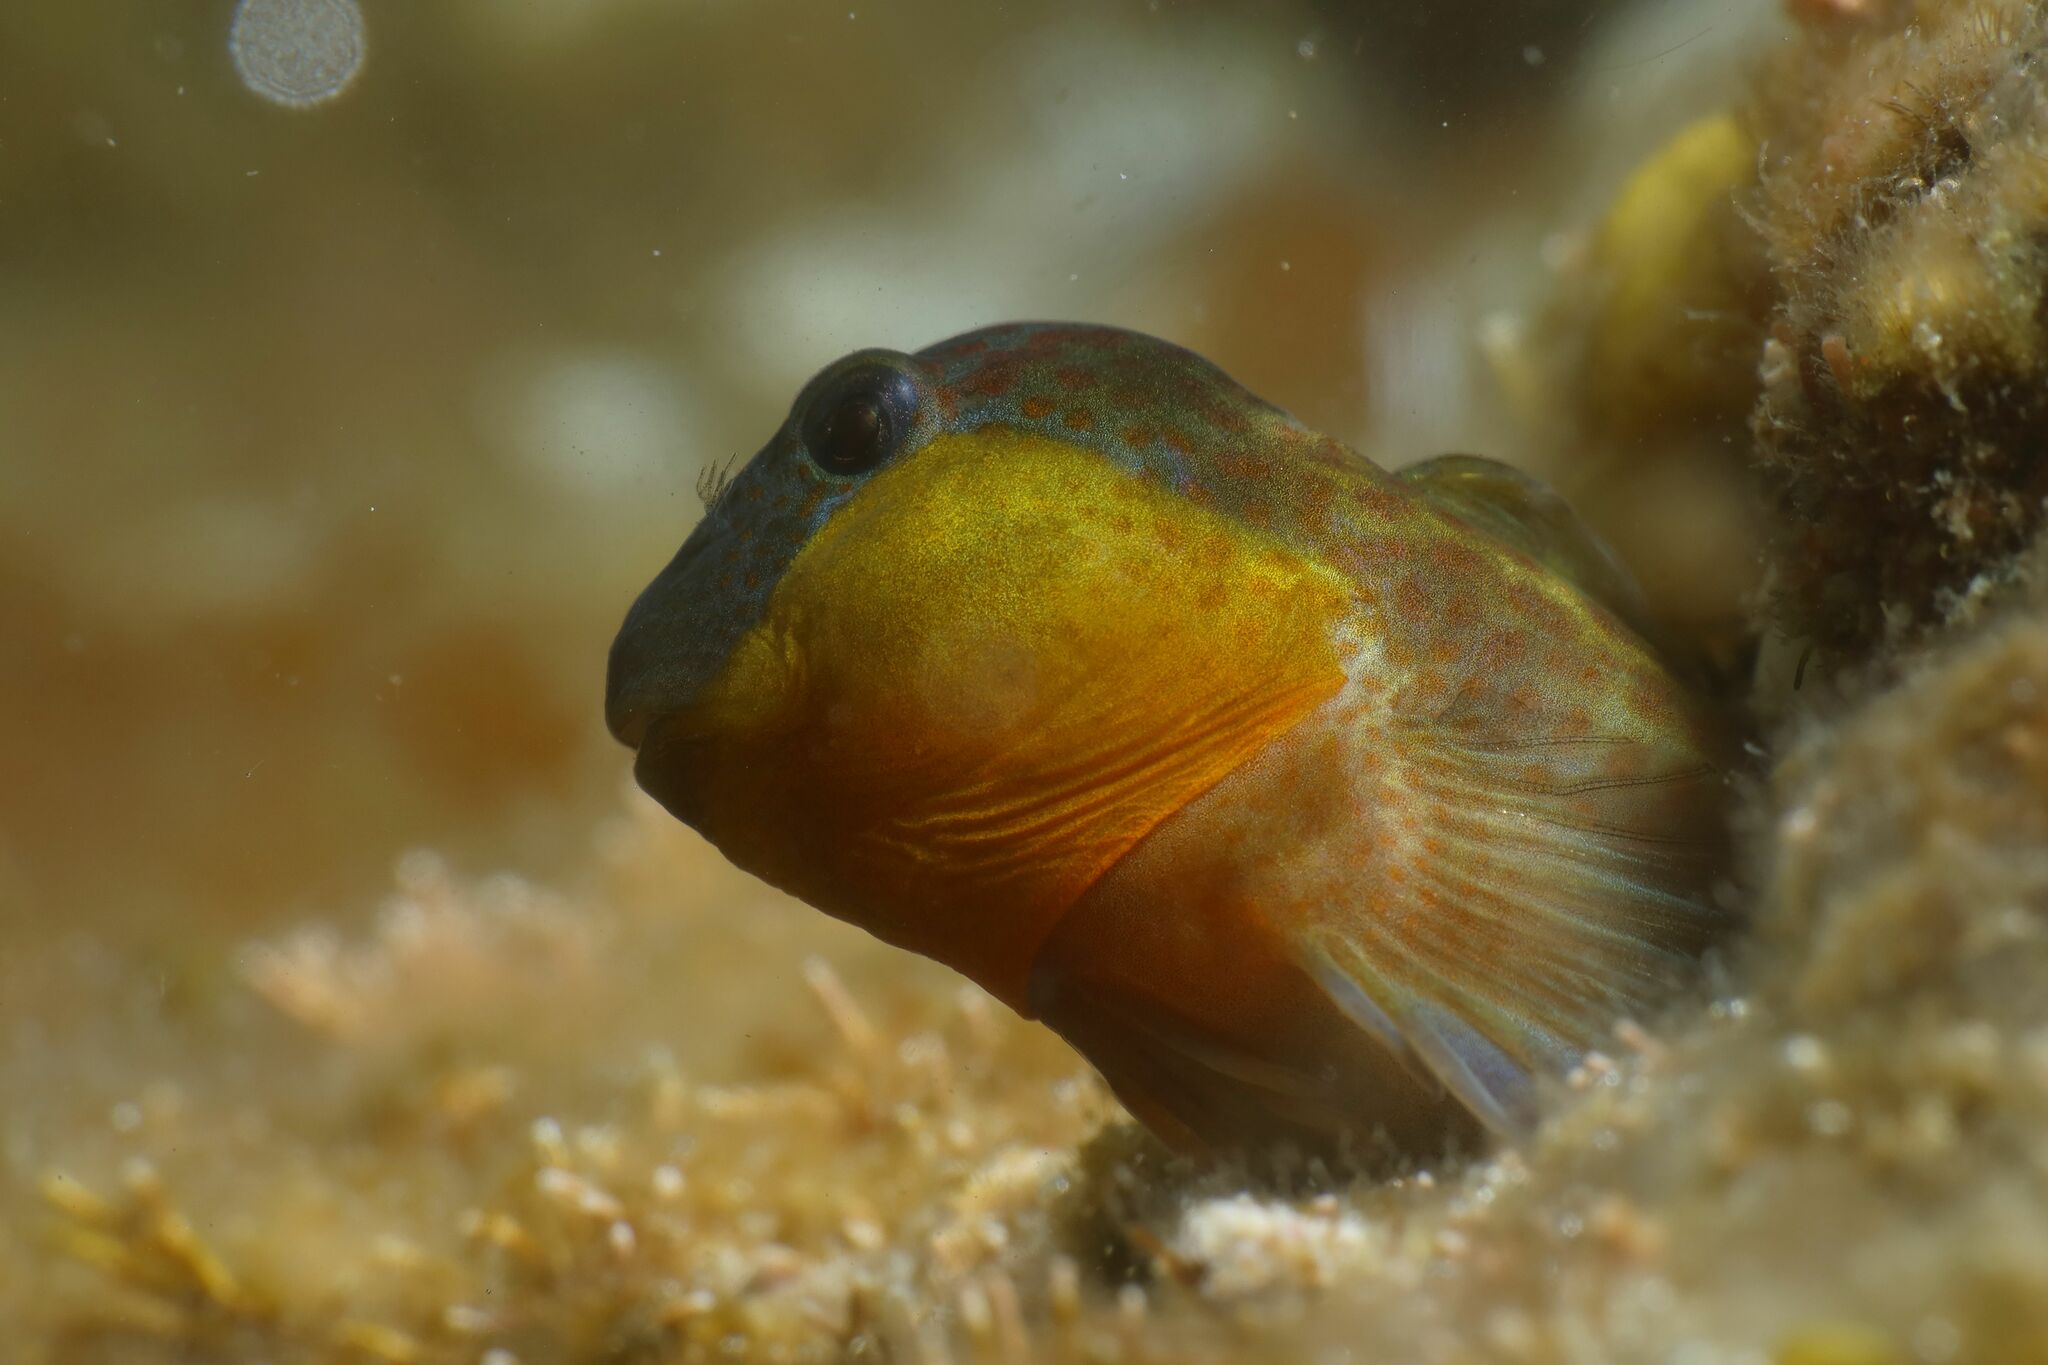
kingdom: Animalia
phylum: Chordata
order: Perciformes
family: Blenniidae
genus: Microlipophrys
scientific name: Microlipophrys canevae
